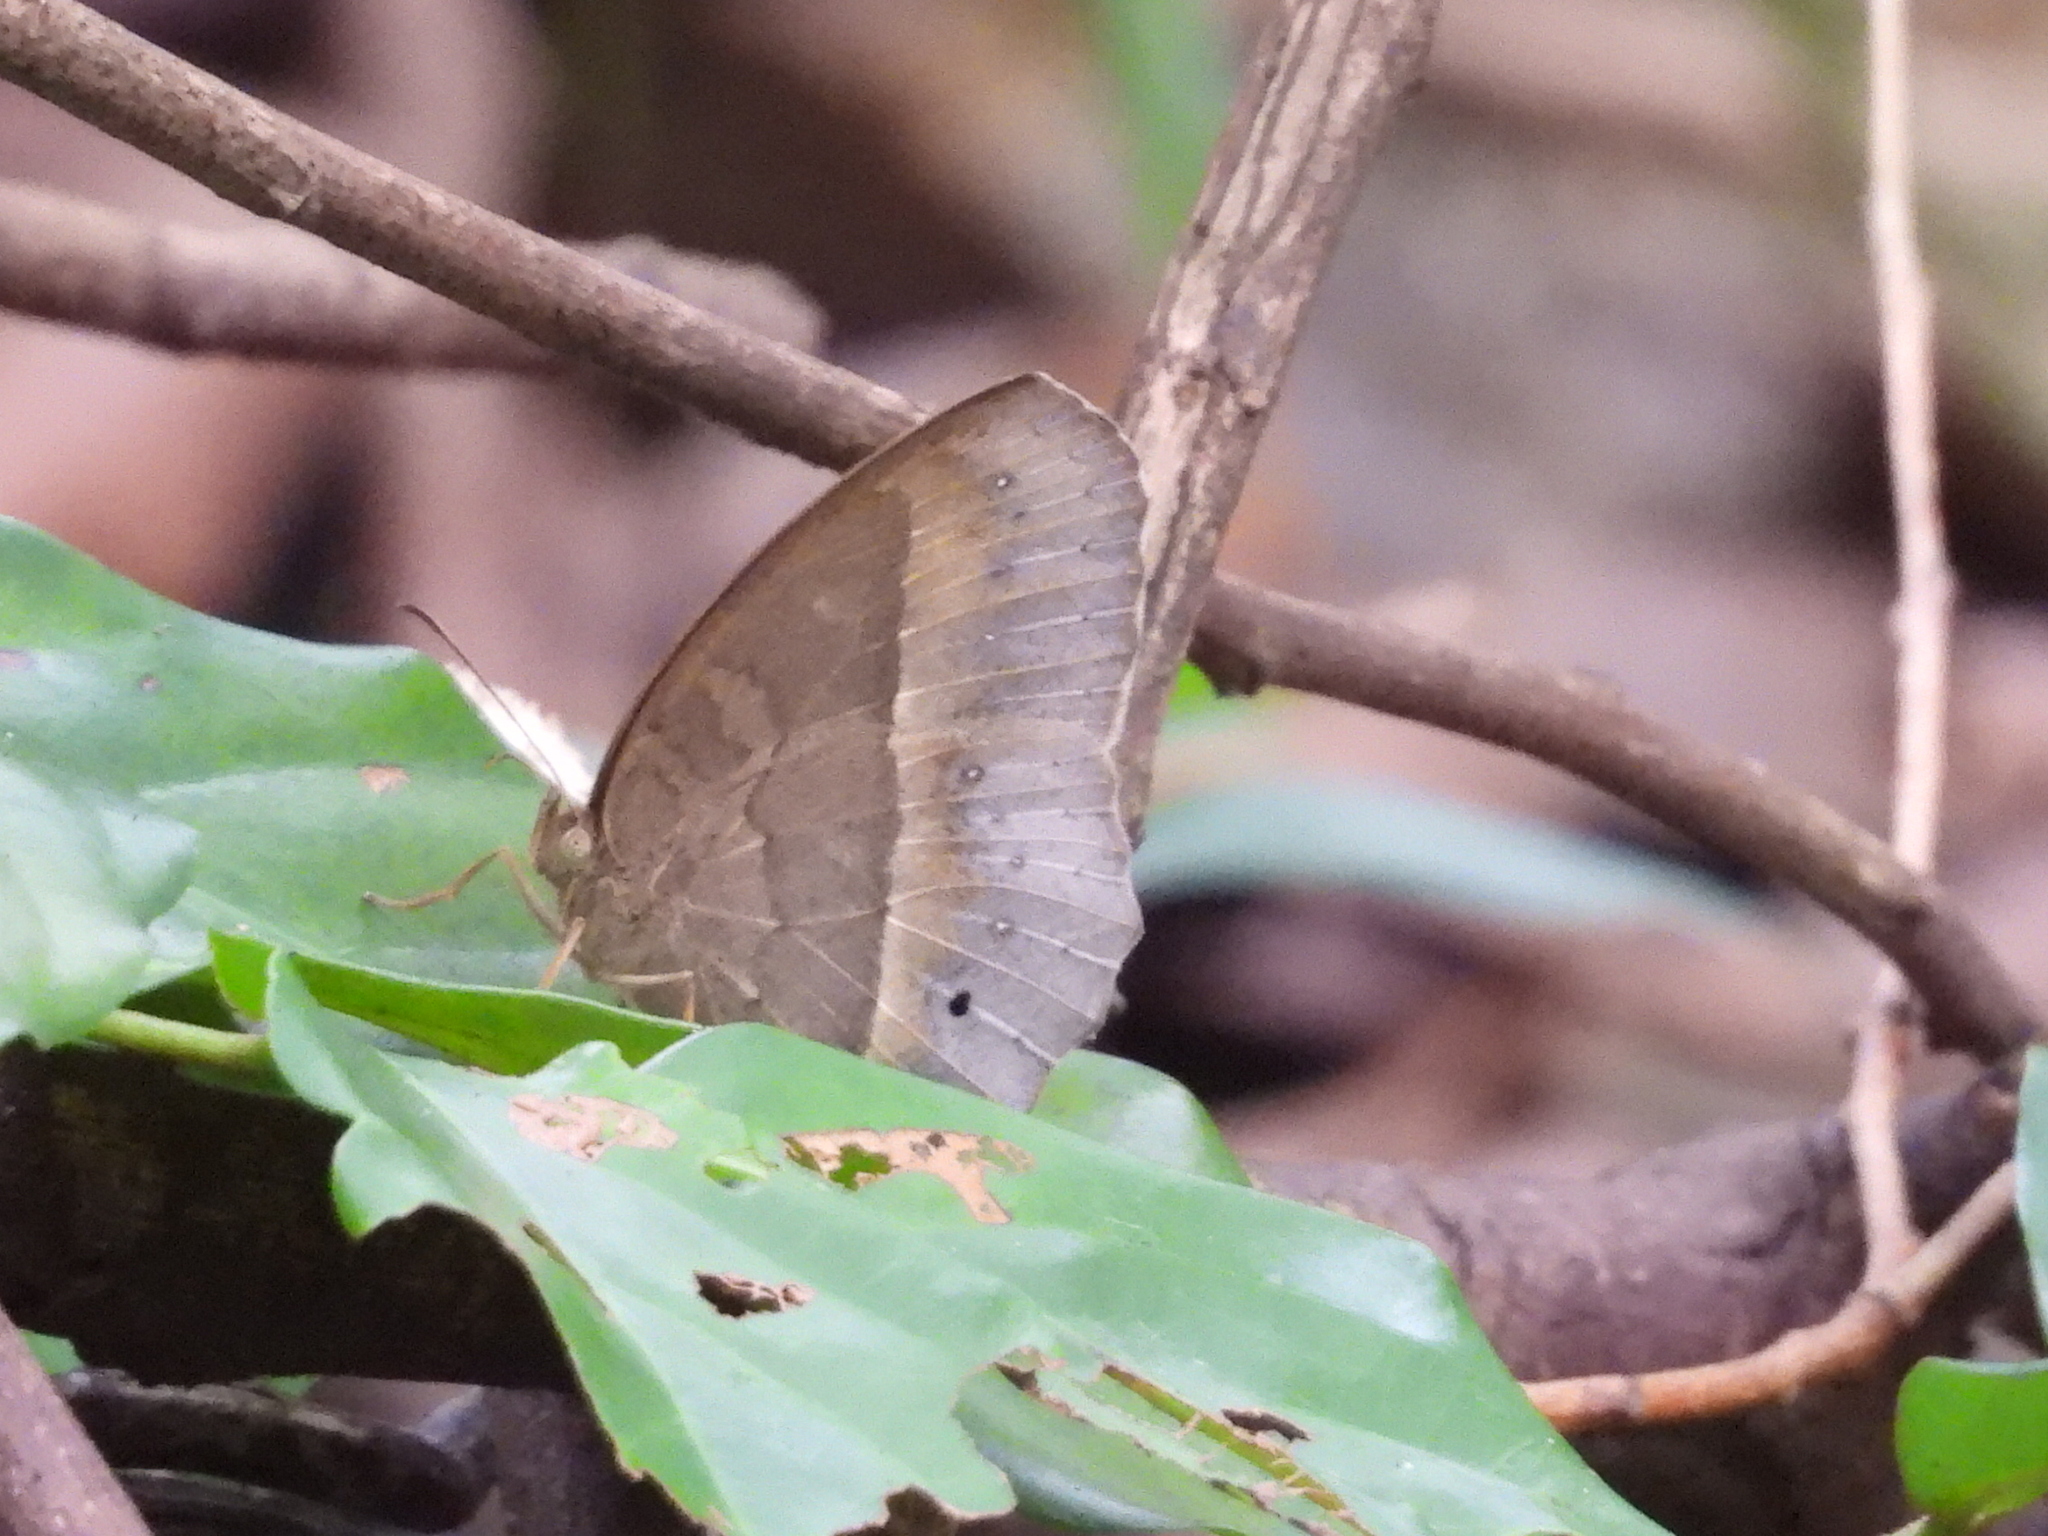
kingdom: Animalia
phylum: Arthropoda
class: Insecta
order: Lepidoptera
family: Nymphalidae
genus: Mycalesis
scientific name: Mycalesis horsfieldii
